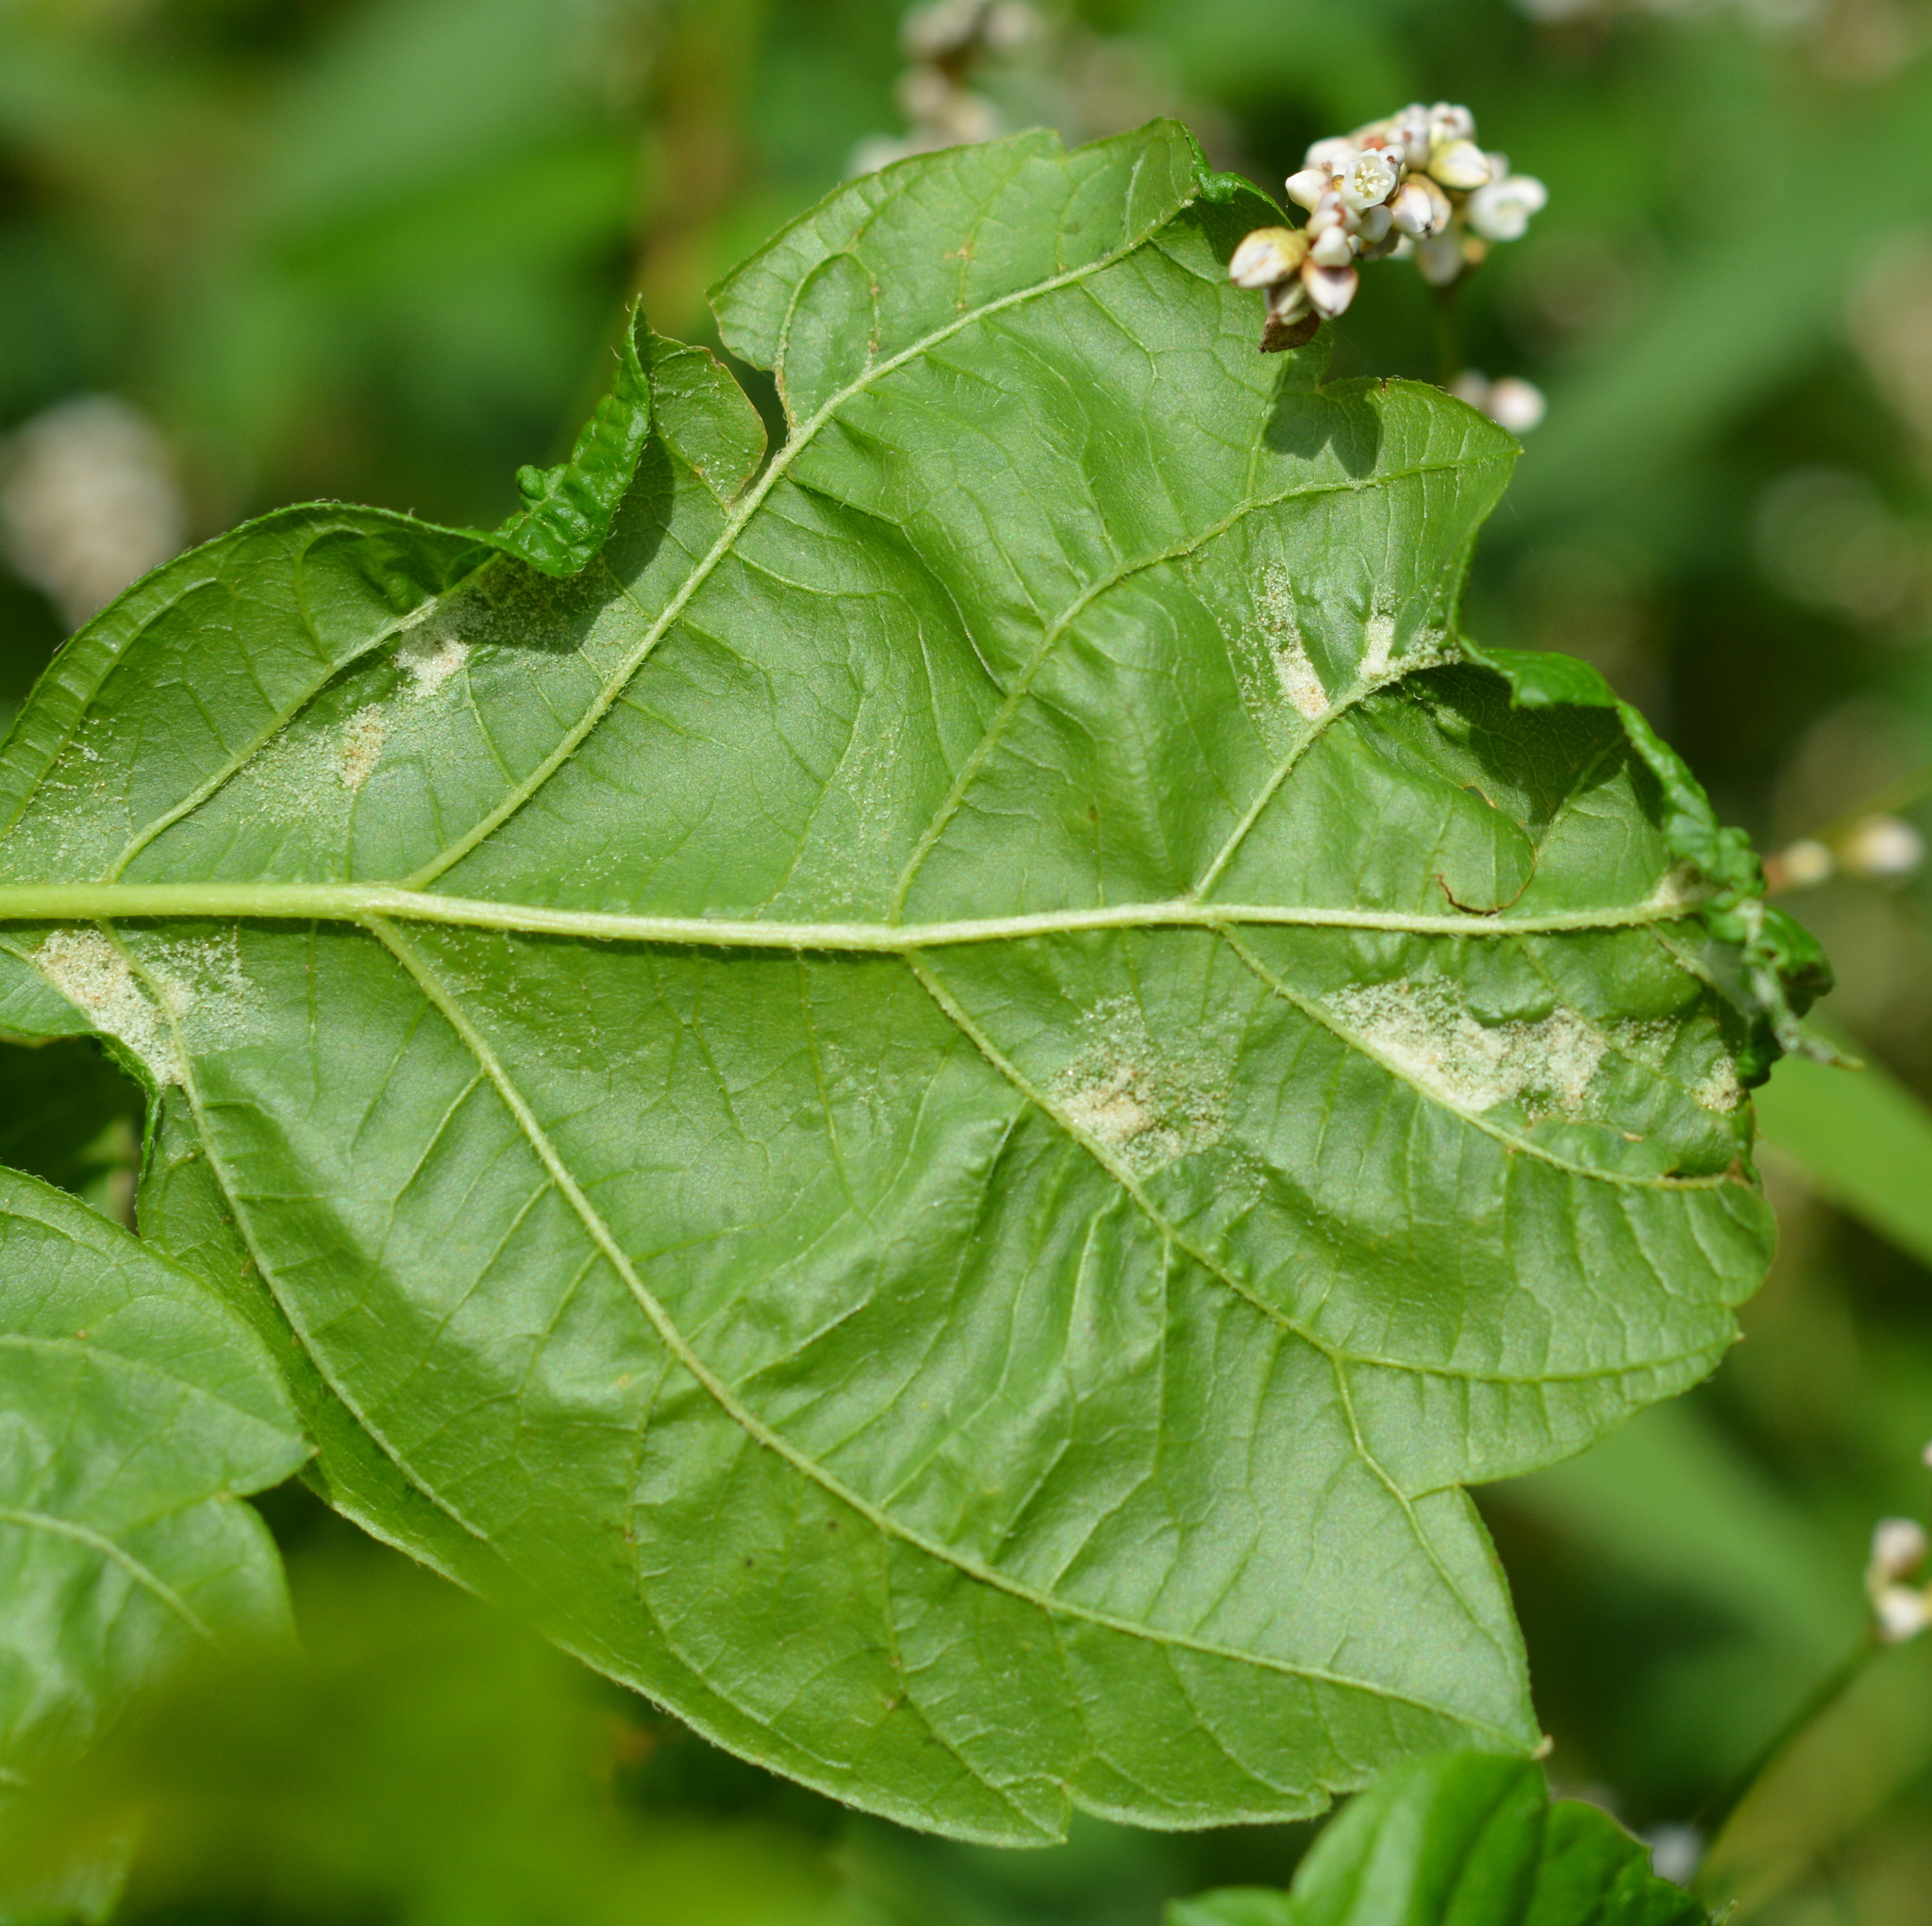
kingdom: Animalia
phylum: Arthropoda
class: Arachnida
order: Trombidiformes
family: Eriophyidae
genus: Aceria
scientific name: Aceria
